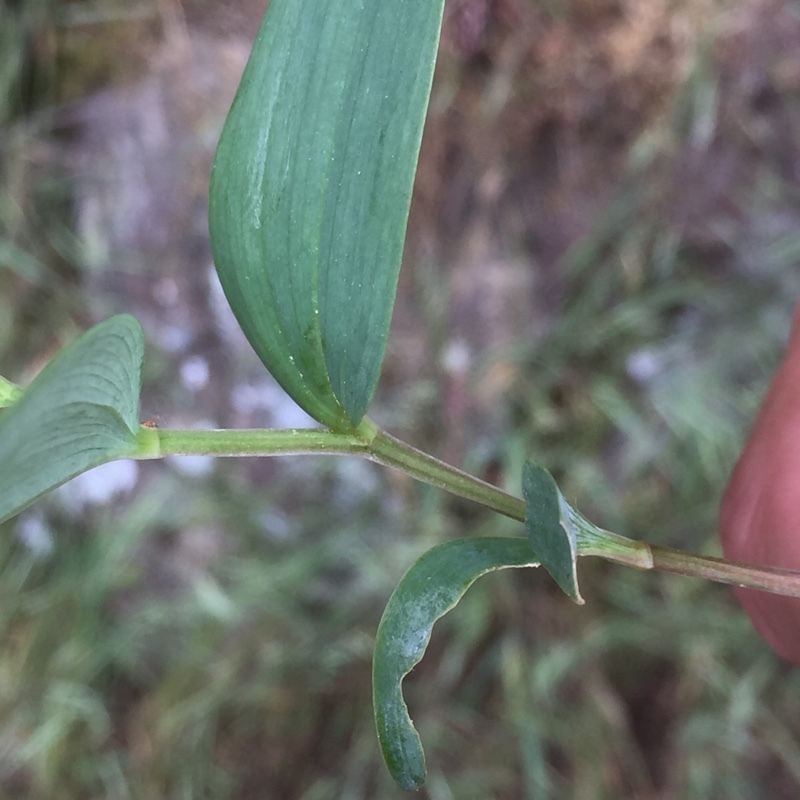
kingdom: Plantae
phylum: Tracheophyta
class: Liliopsida
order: Asparagales
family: Asparagaceae
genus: Polygonatum
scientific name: Polygonatum odoratum
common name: Angular solomon's-seal
